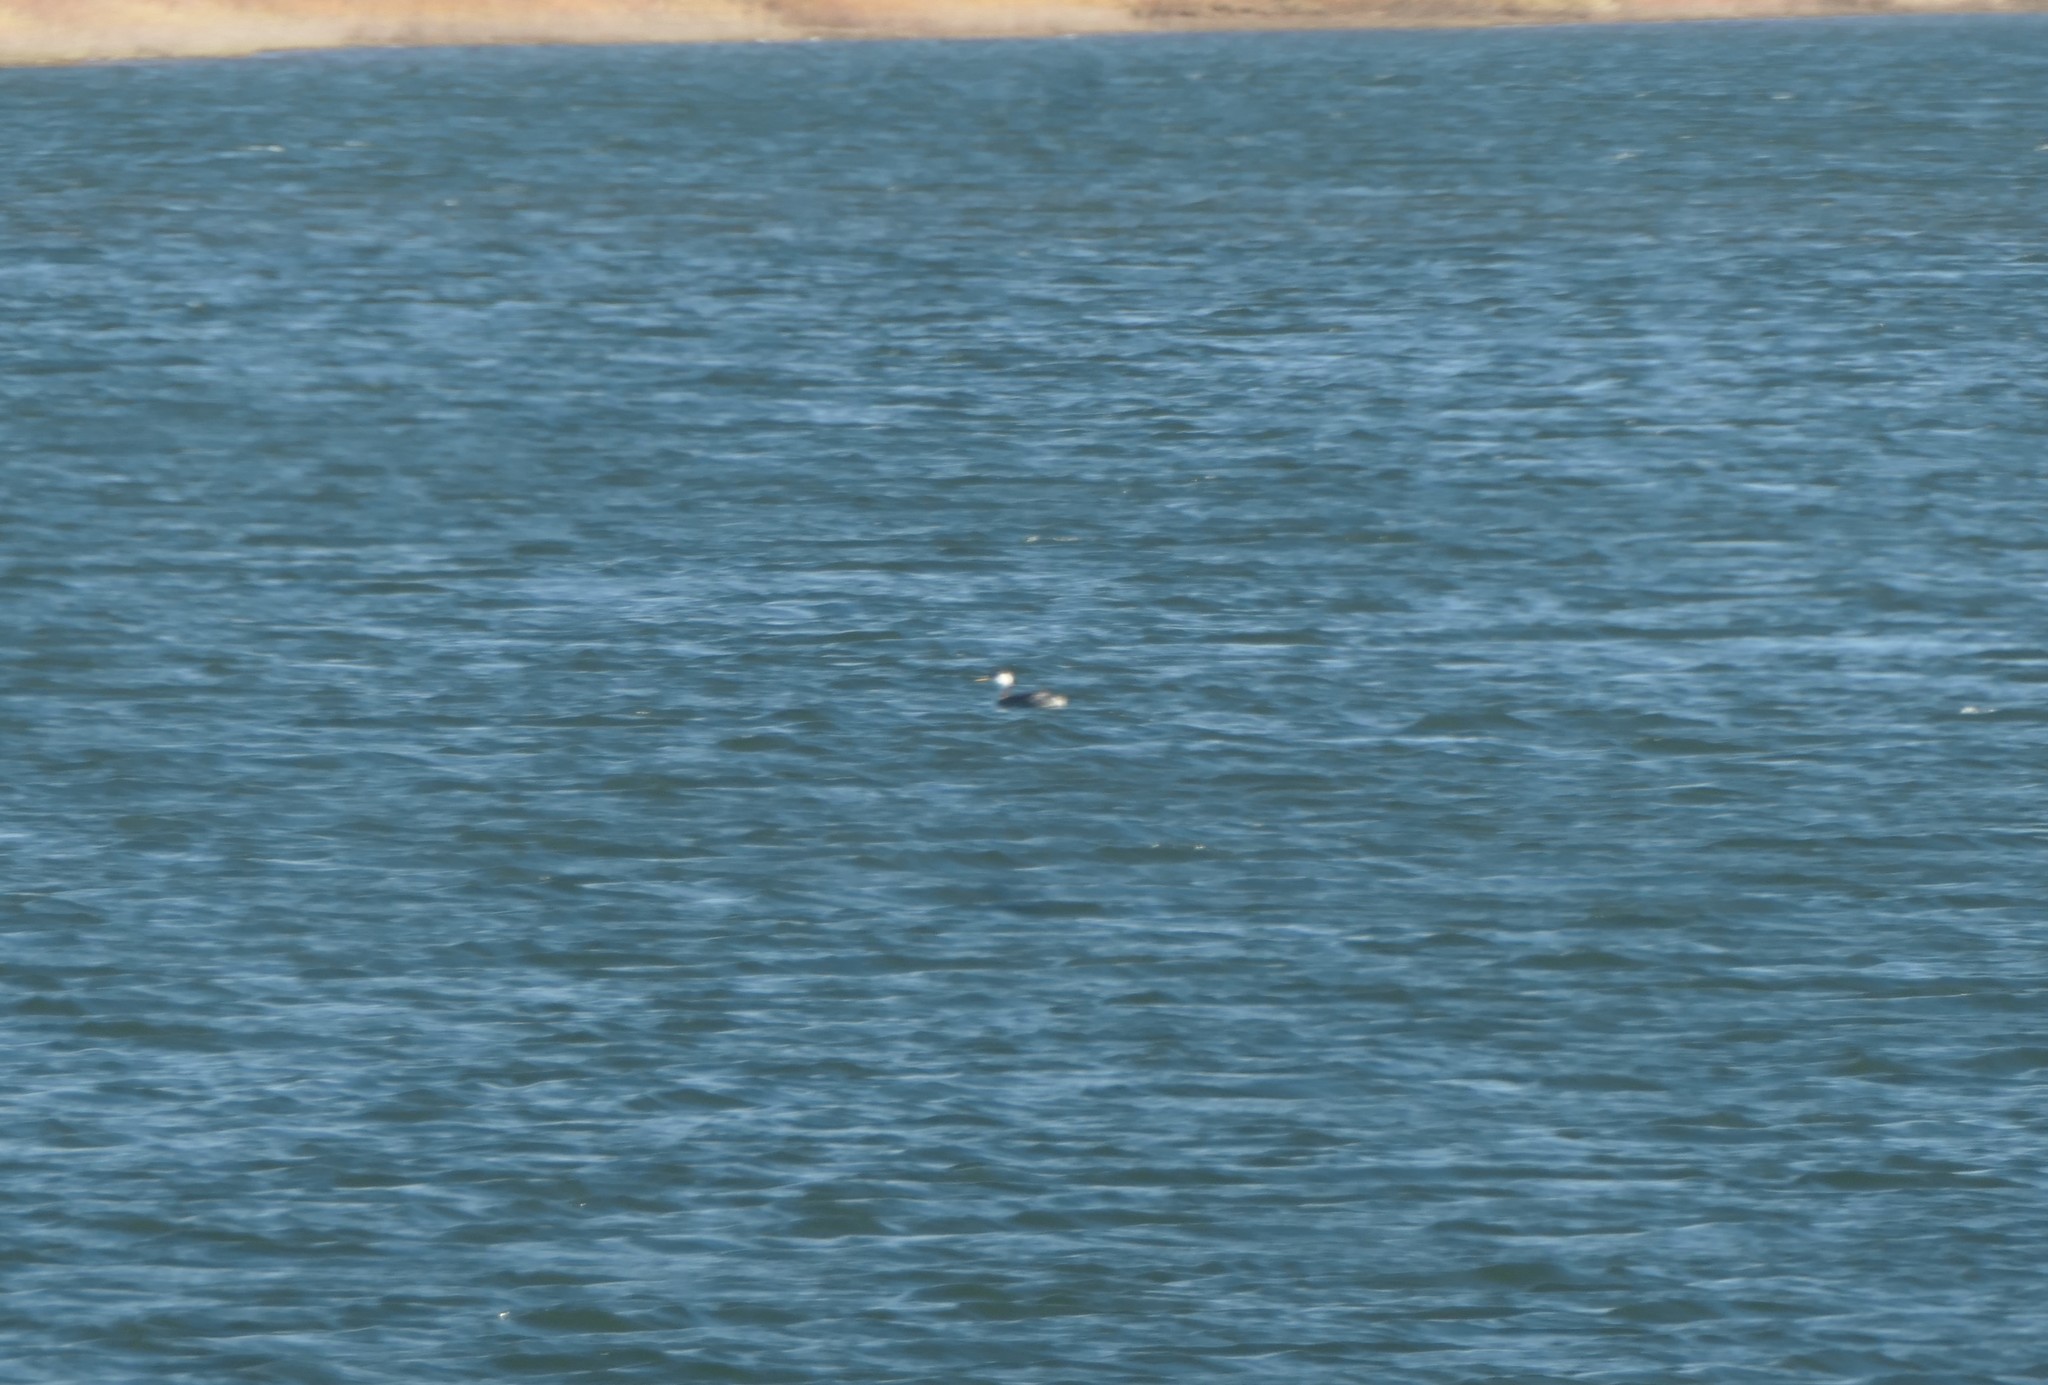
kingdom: Animalia
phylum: Chordata
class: Aves
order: Podicipediformes
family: Podicipedidae
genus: Aechmophorus
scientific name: Aechmophorus occidentalis
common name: Western grebe
